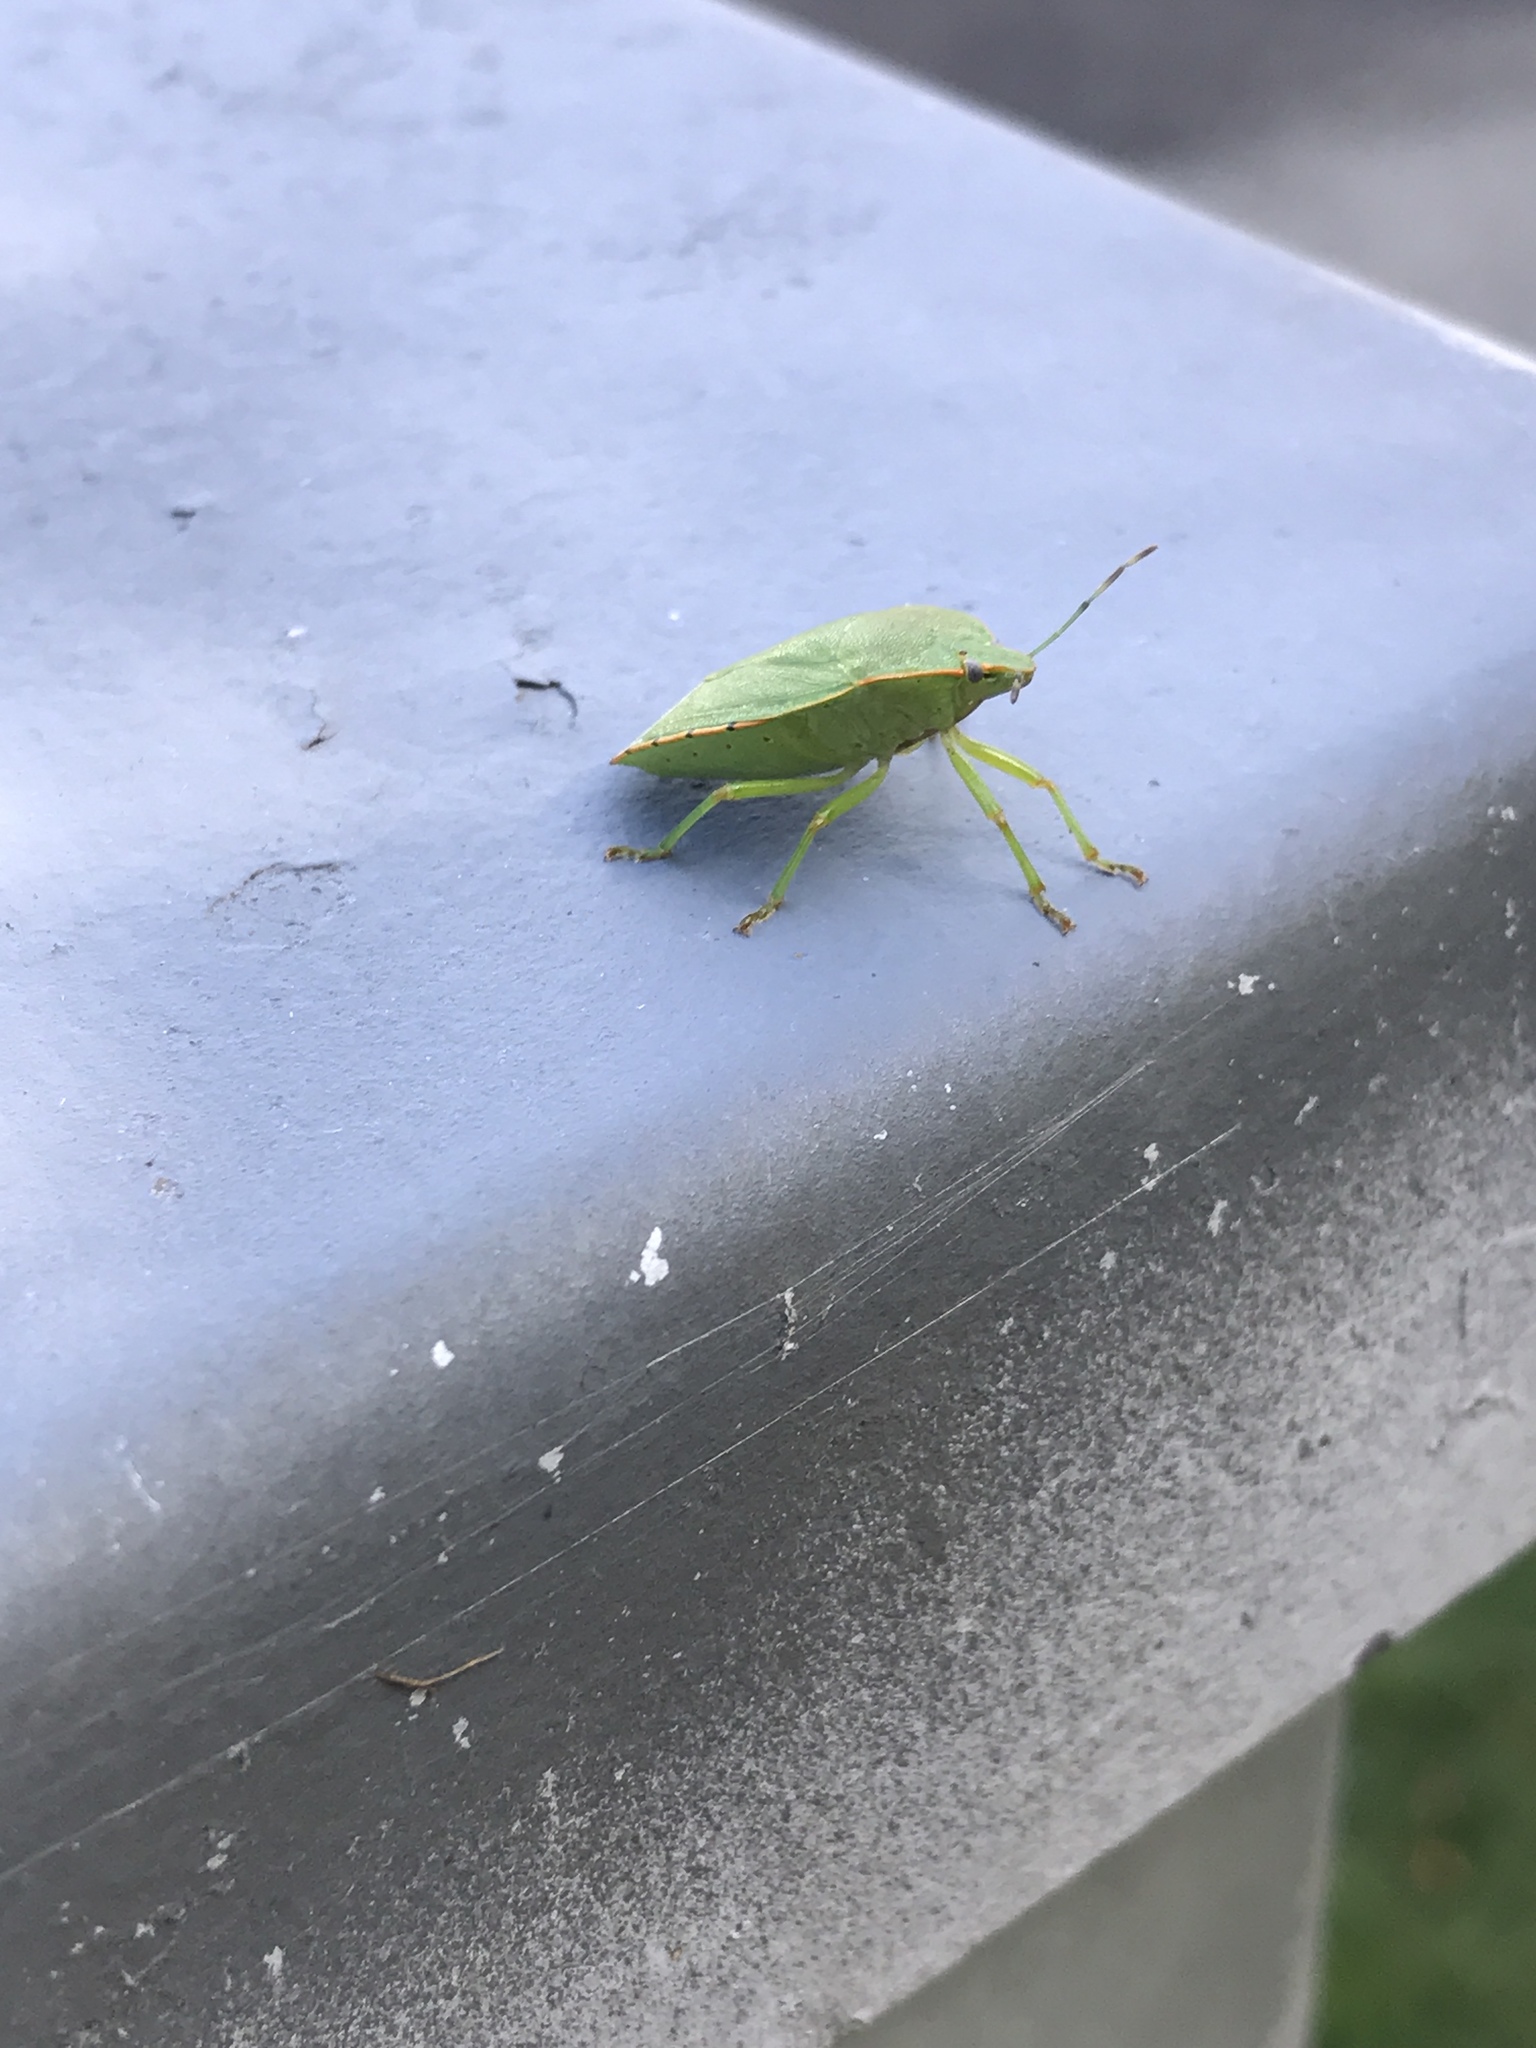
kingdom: Animalia
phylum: Arthropoda
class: Insecta
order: Hemiptera
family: Pentatomidae
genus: Chinavia
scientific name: Chinavia hilaris
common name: Green stink bug
